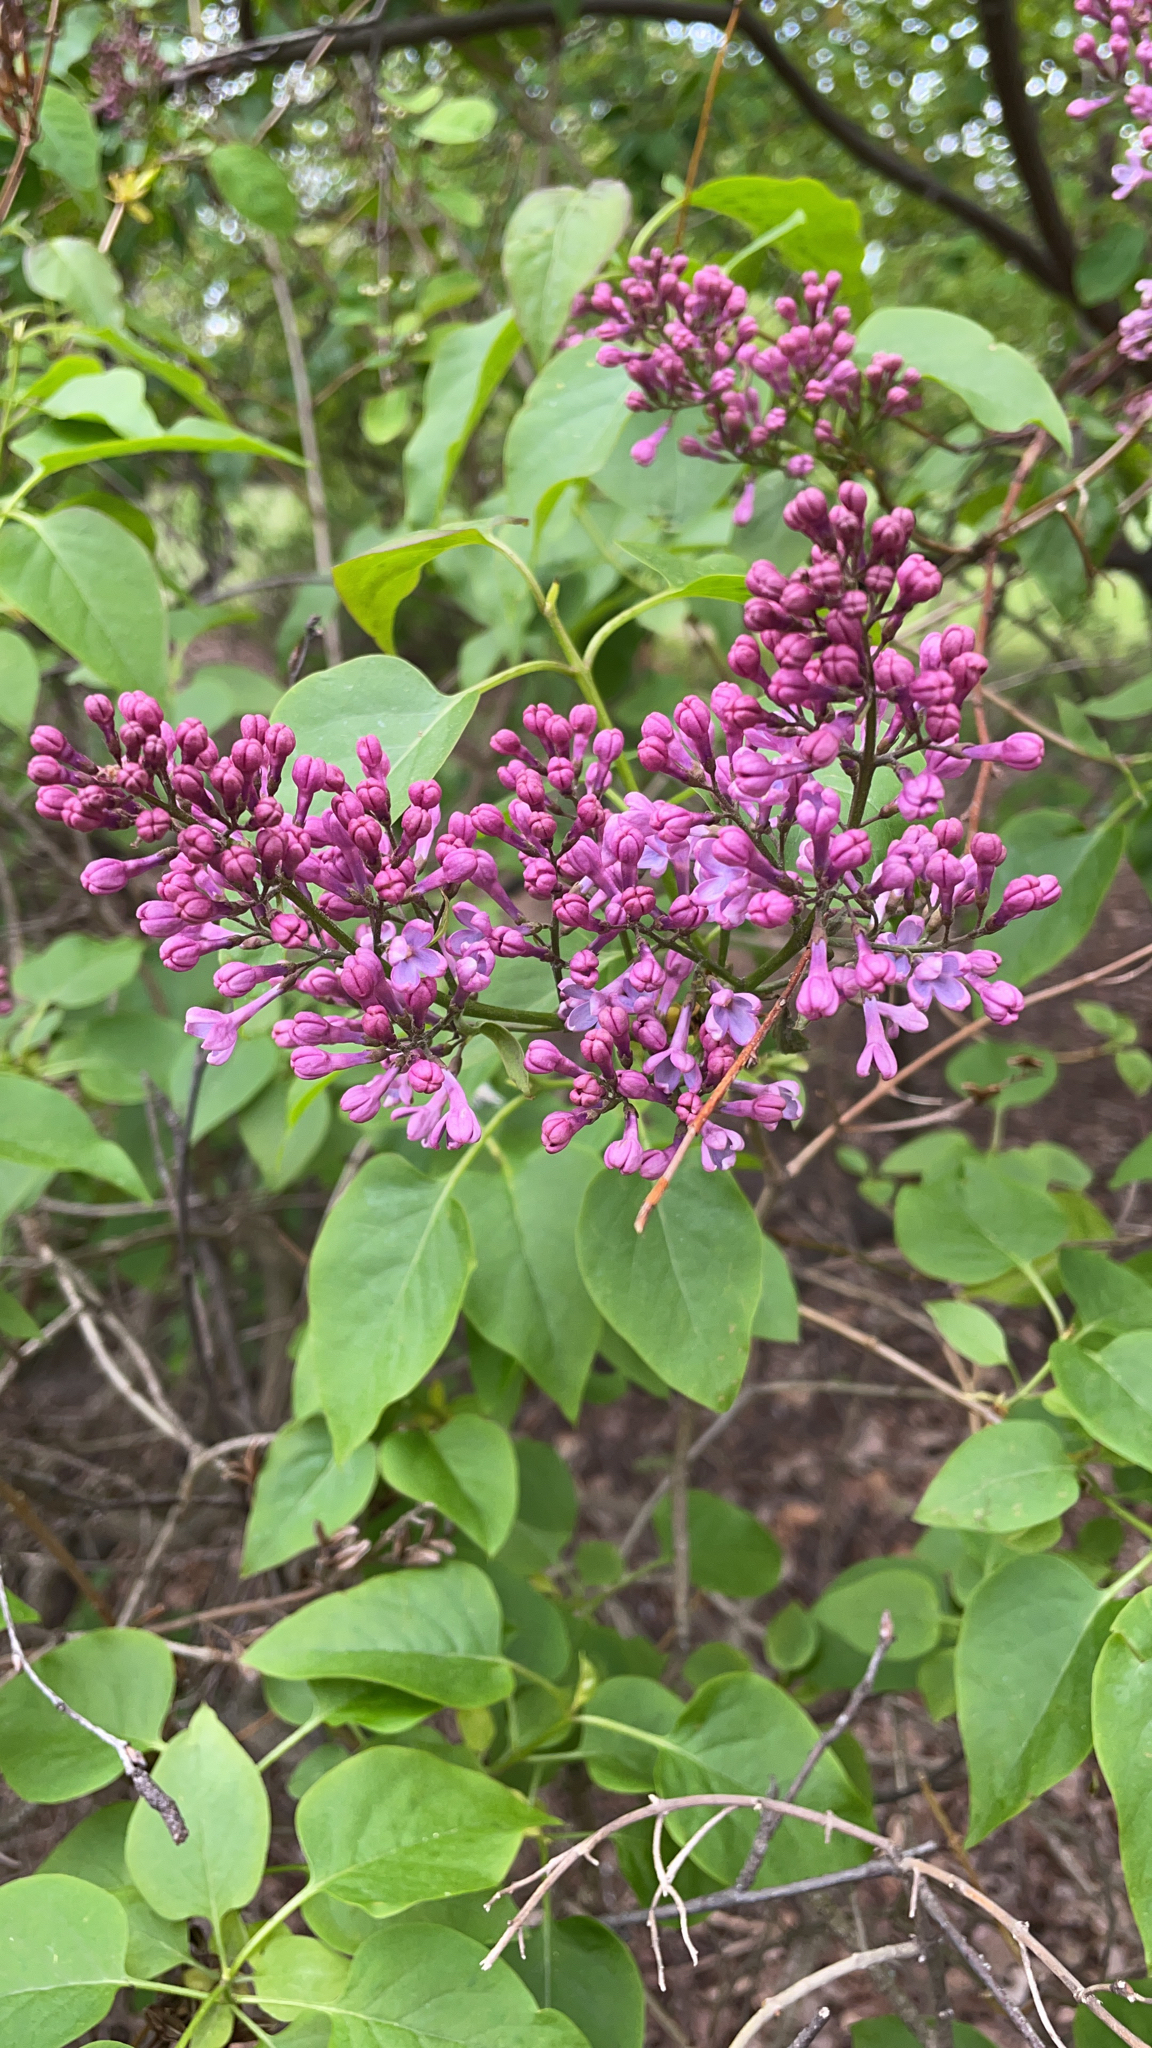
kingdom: Plantae
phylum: Tracheophyta
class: Magnoliopsida
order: Lamiales
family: Oleaceae
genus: Syringa
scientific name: Syringa vulgaris
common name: Common lilac
